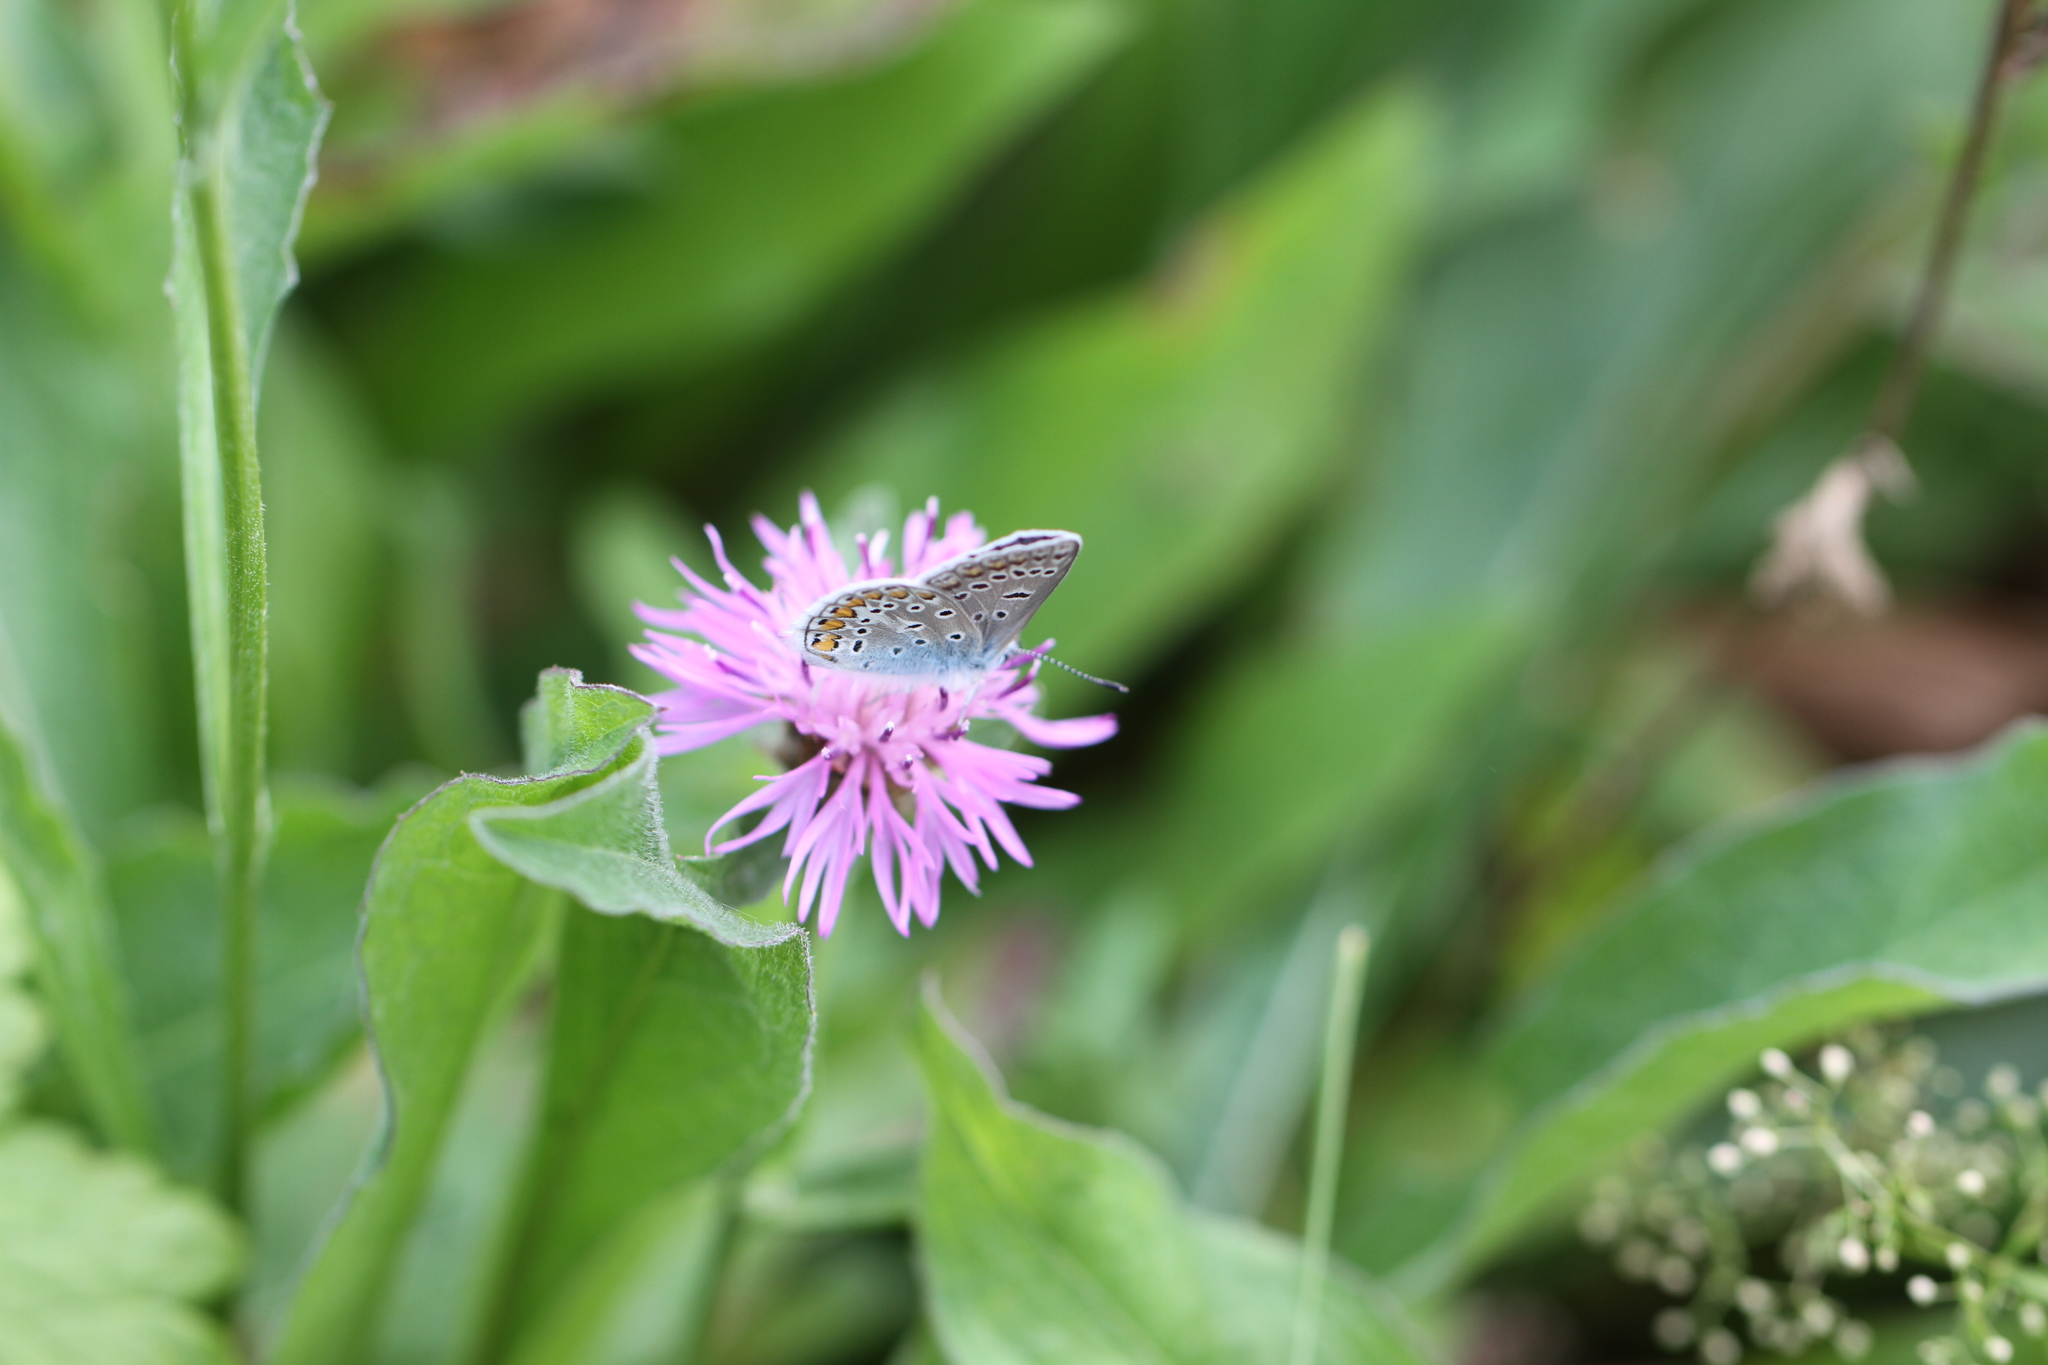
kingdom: Animalia
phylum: Arthropoda
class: Insecta
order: Lepidoptera
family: Lycaenidae
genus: Polyommatus
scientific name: Polyommatus icarus
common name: Common blue
